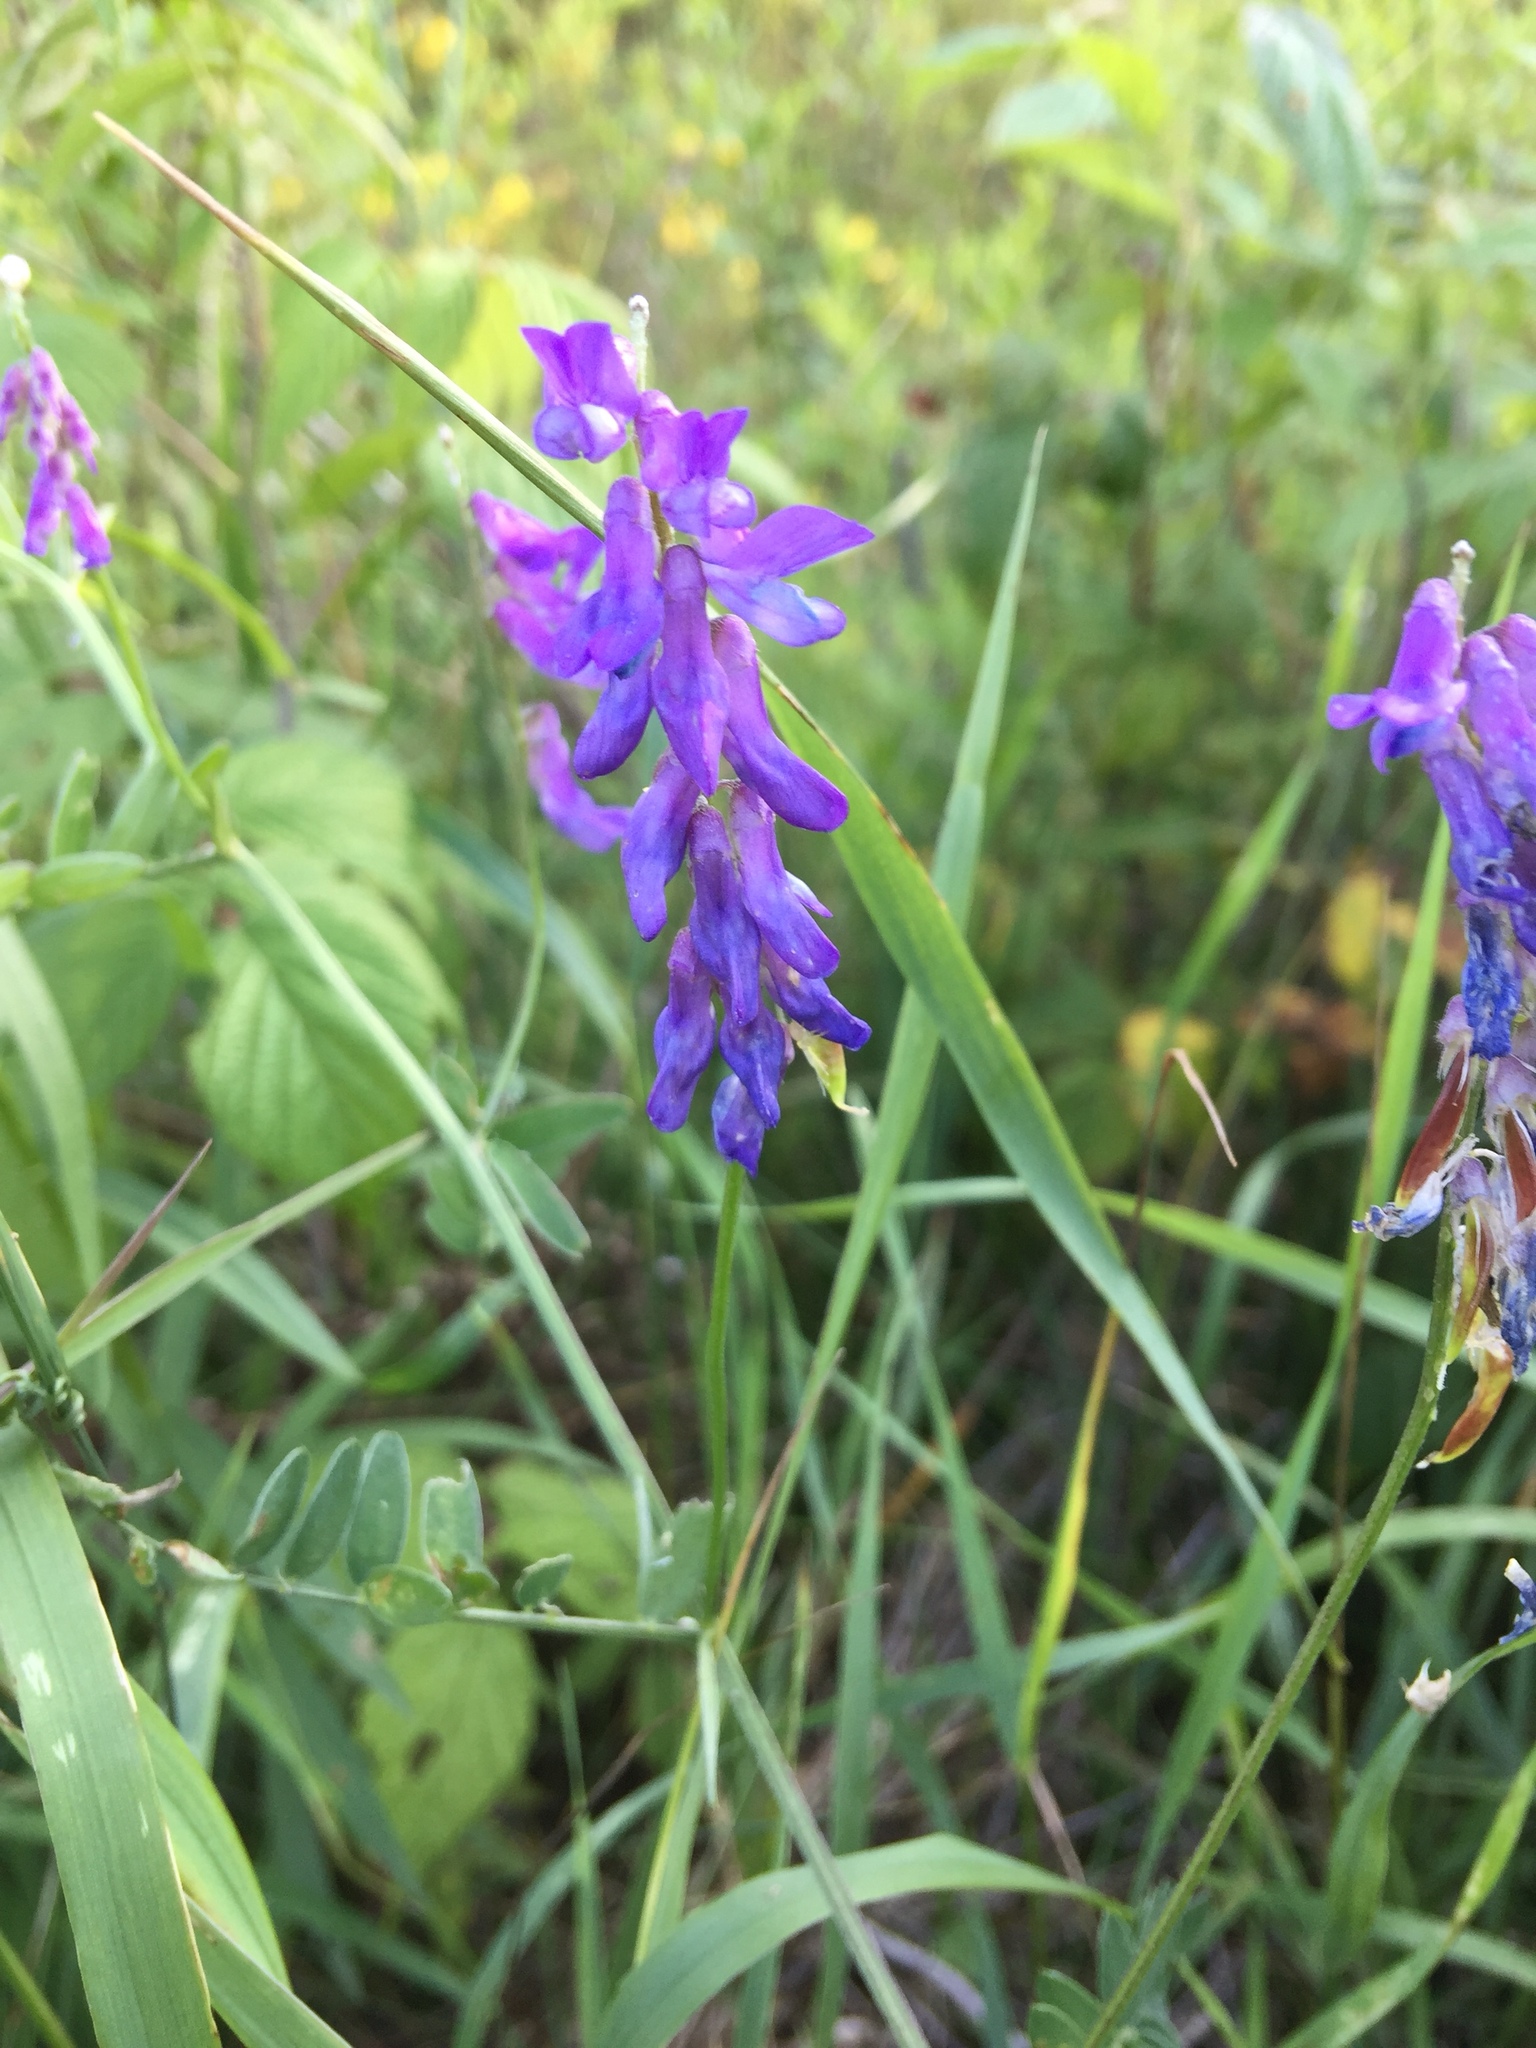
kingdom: Plantae
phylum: Tracheophyta
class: Magnoliopsida
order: Fabales
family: Fabaceae
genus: Vicia
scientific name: Vicia cracca
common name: Bird vetch
